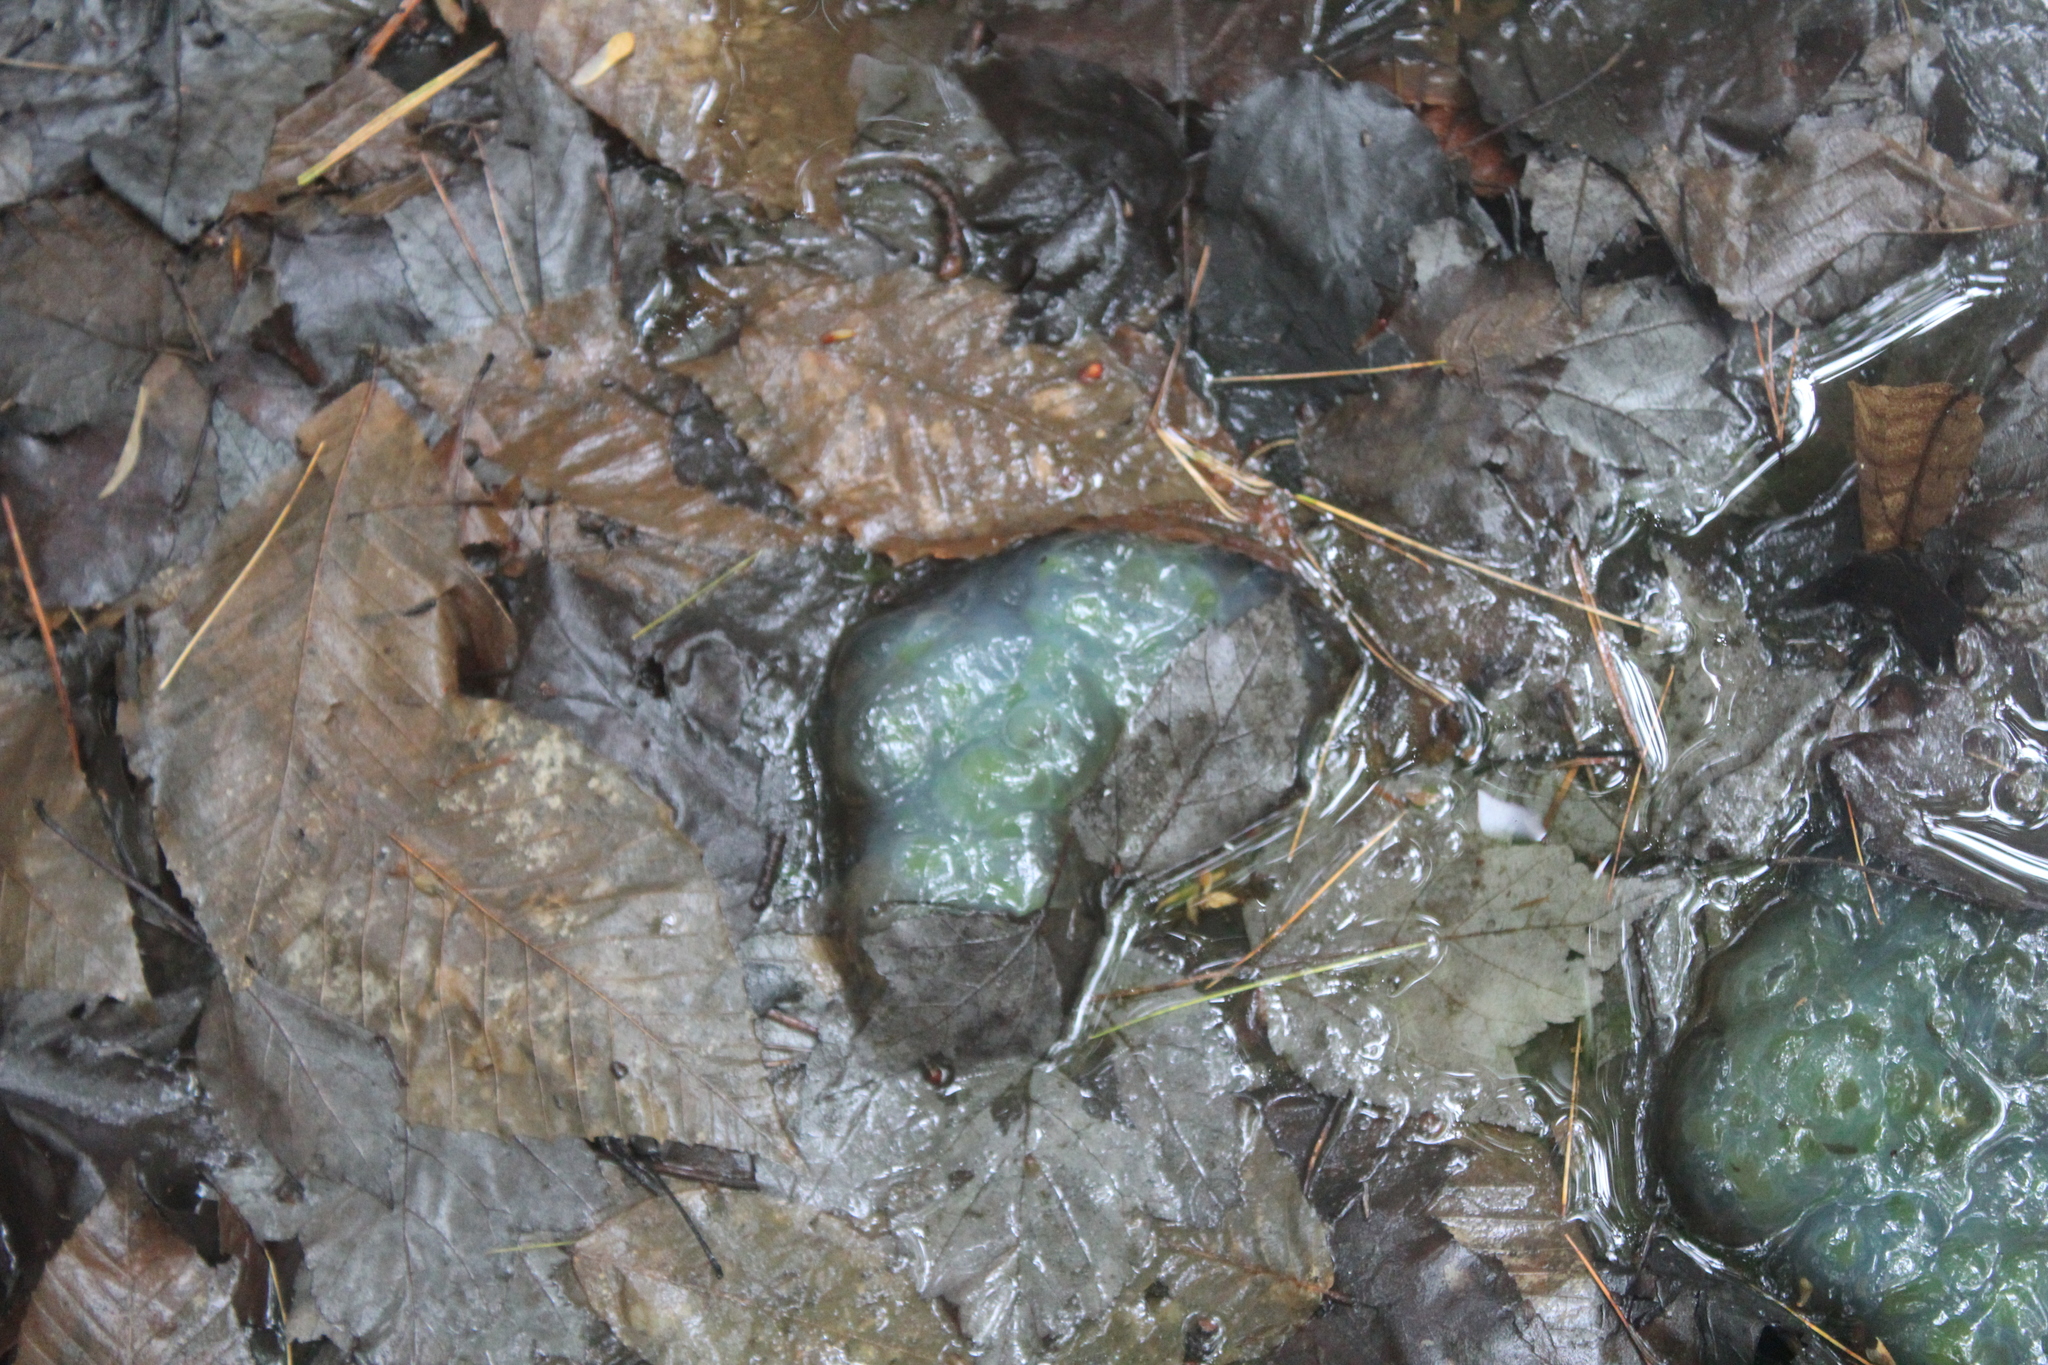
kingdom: Animalia
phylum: Chordata
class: Amphibia
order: Caudata
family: Ambystomatidae
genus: Ambystoma
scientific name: Ambystoma maculatum
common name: Spotted salamander
